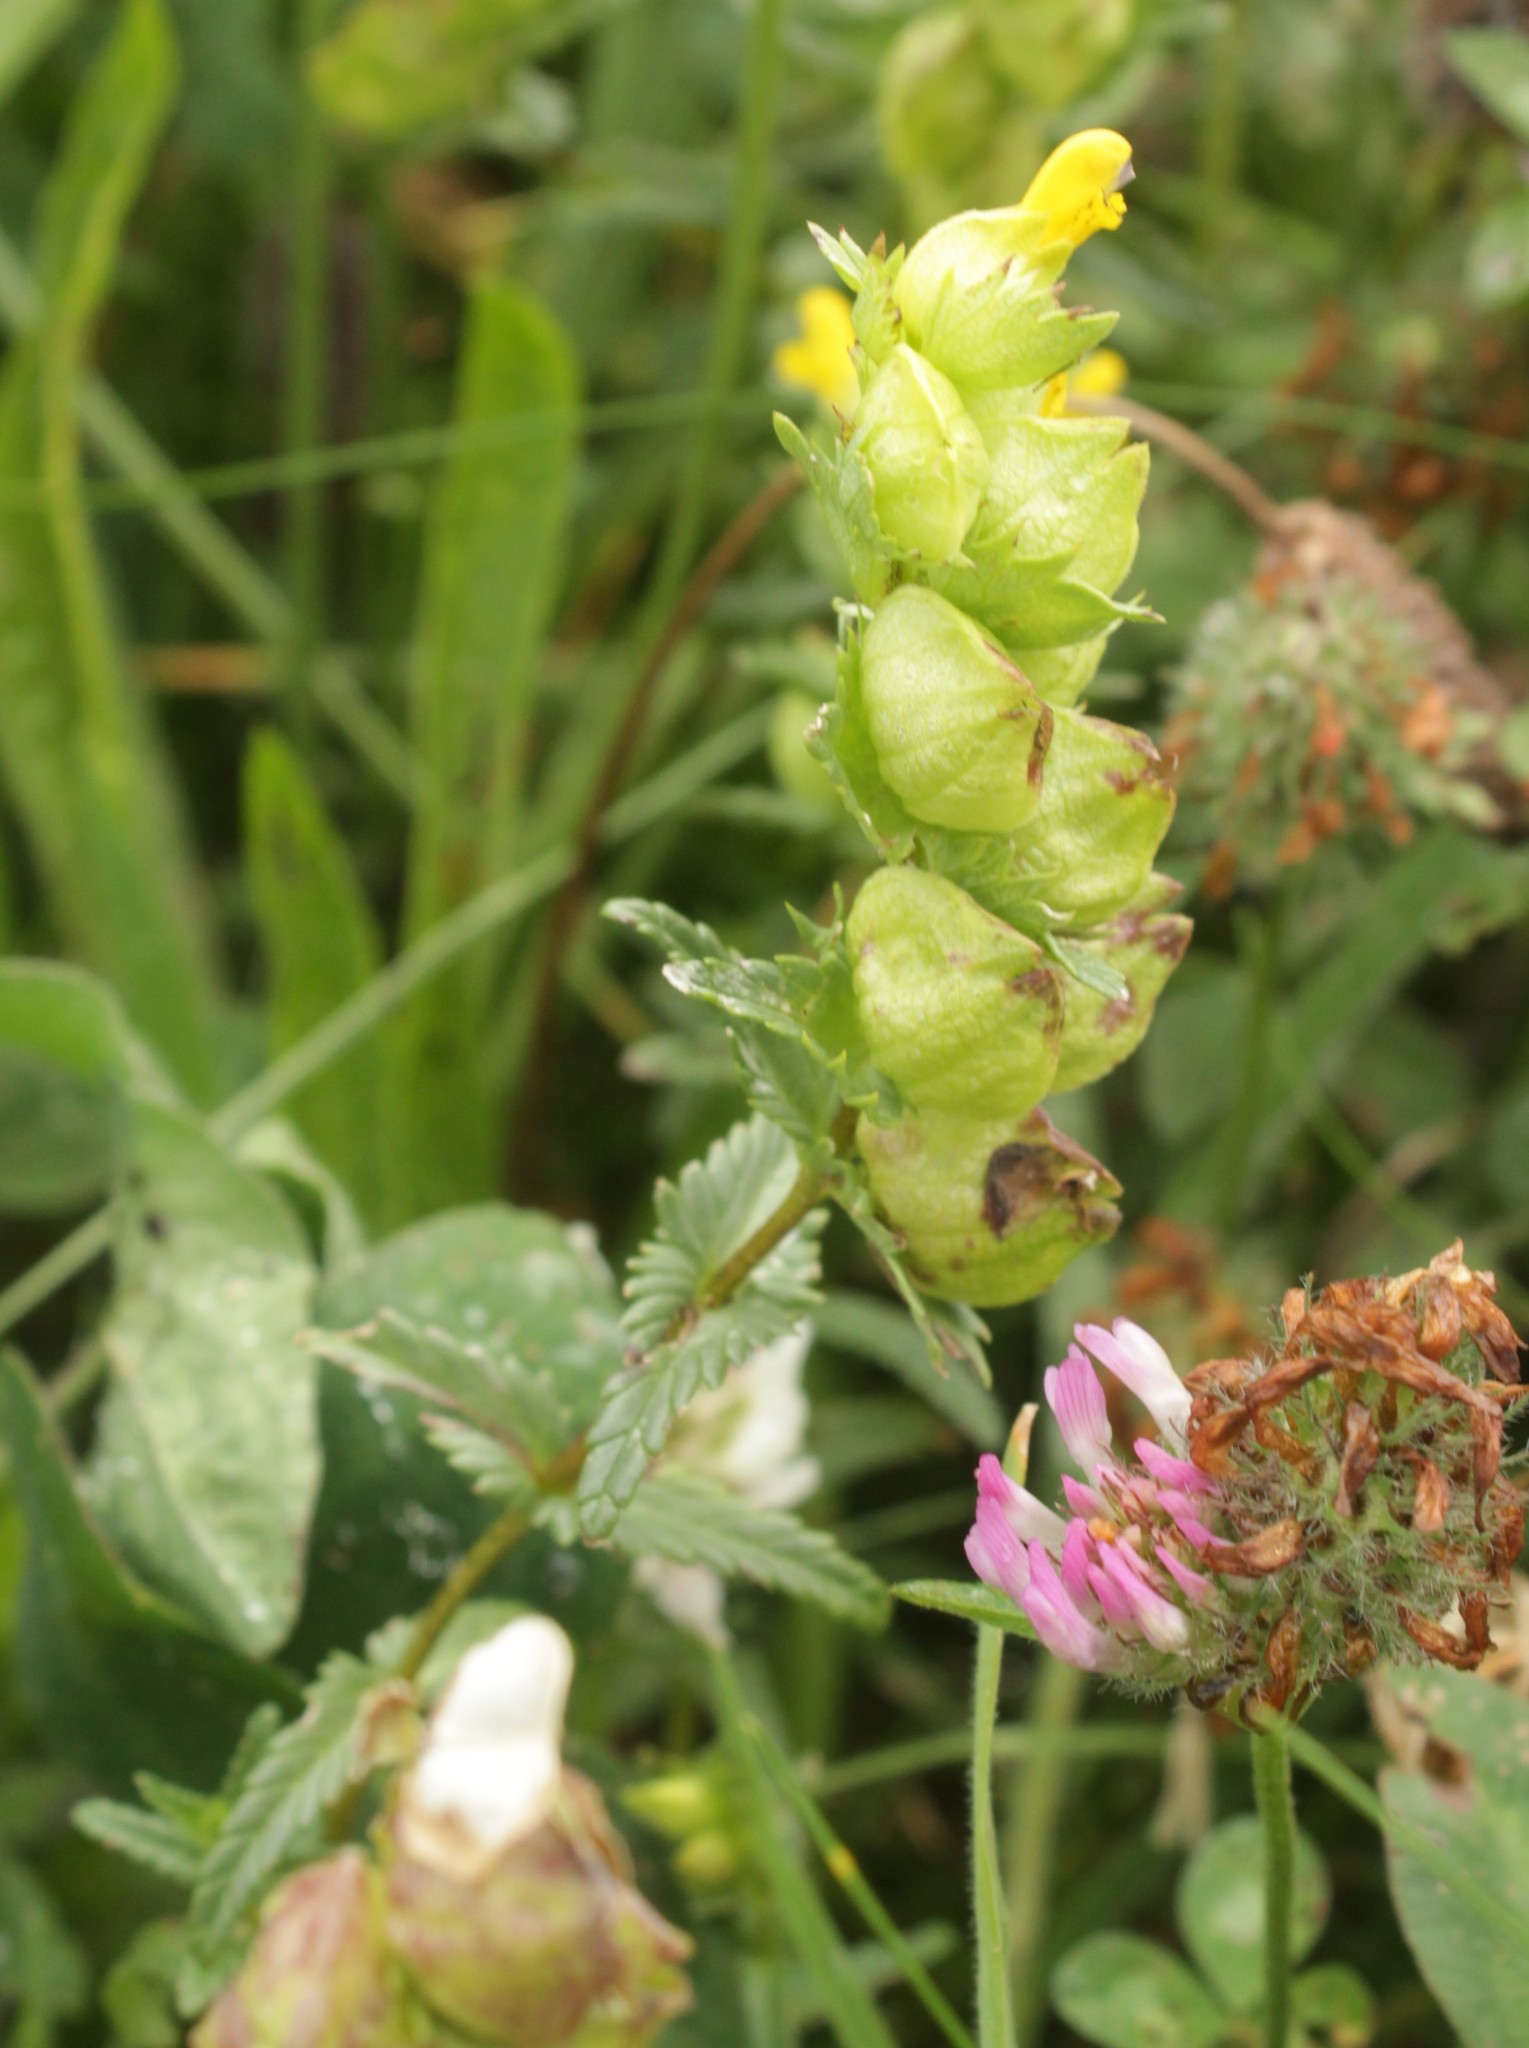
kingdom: Plantae
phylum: Tracheophyta
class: Magnoliopsida
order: Lamiales
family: Orobanchaceae
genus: Rhinanthus
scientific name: Rhinanthus minor
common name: Yellow-rattle
